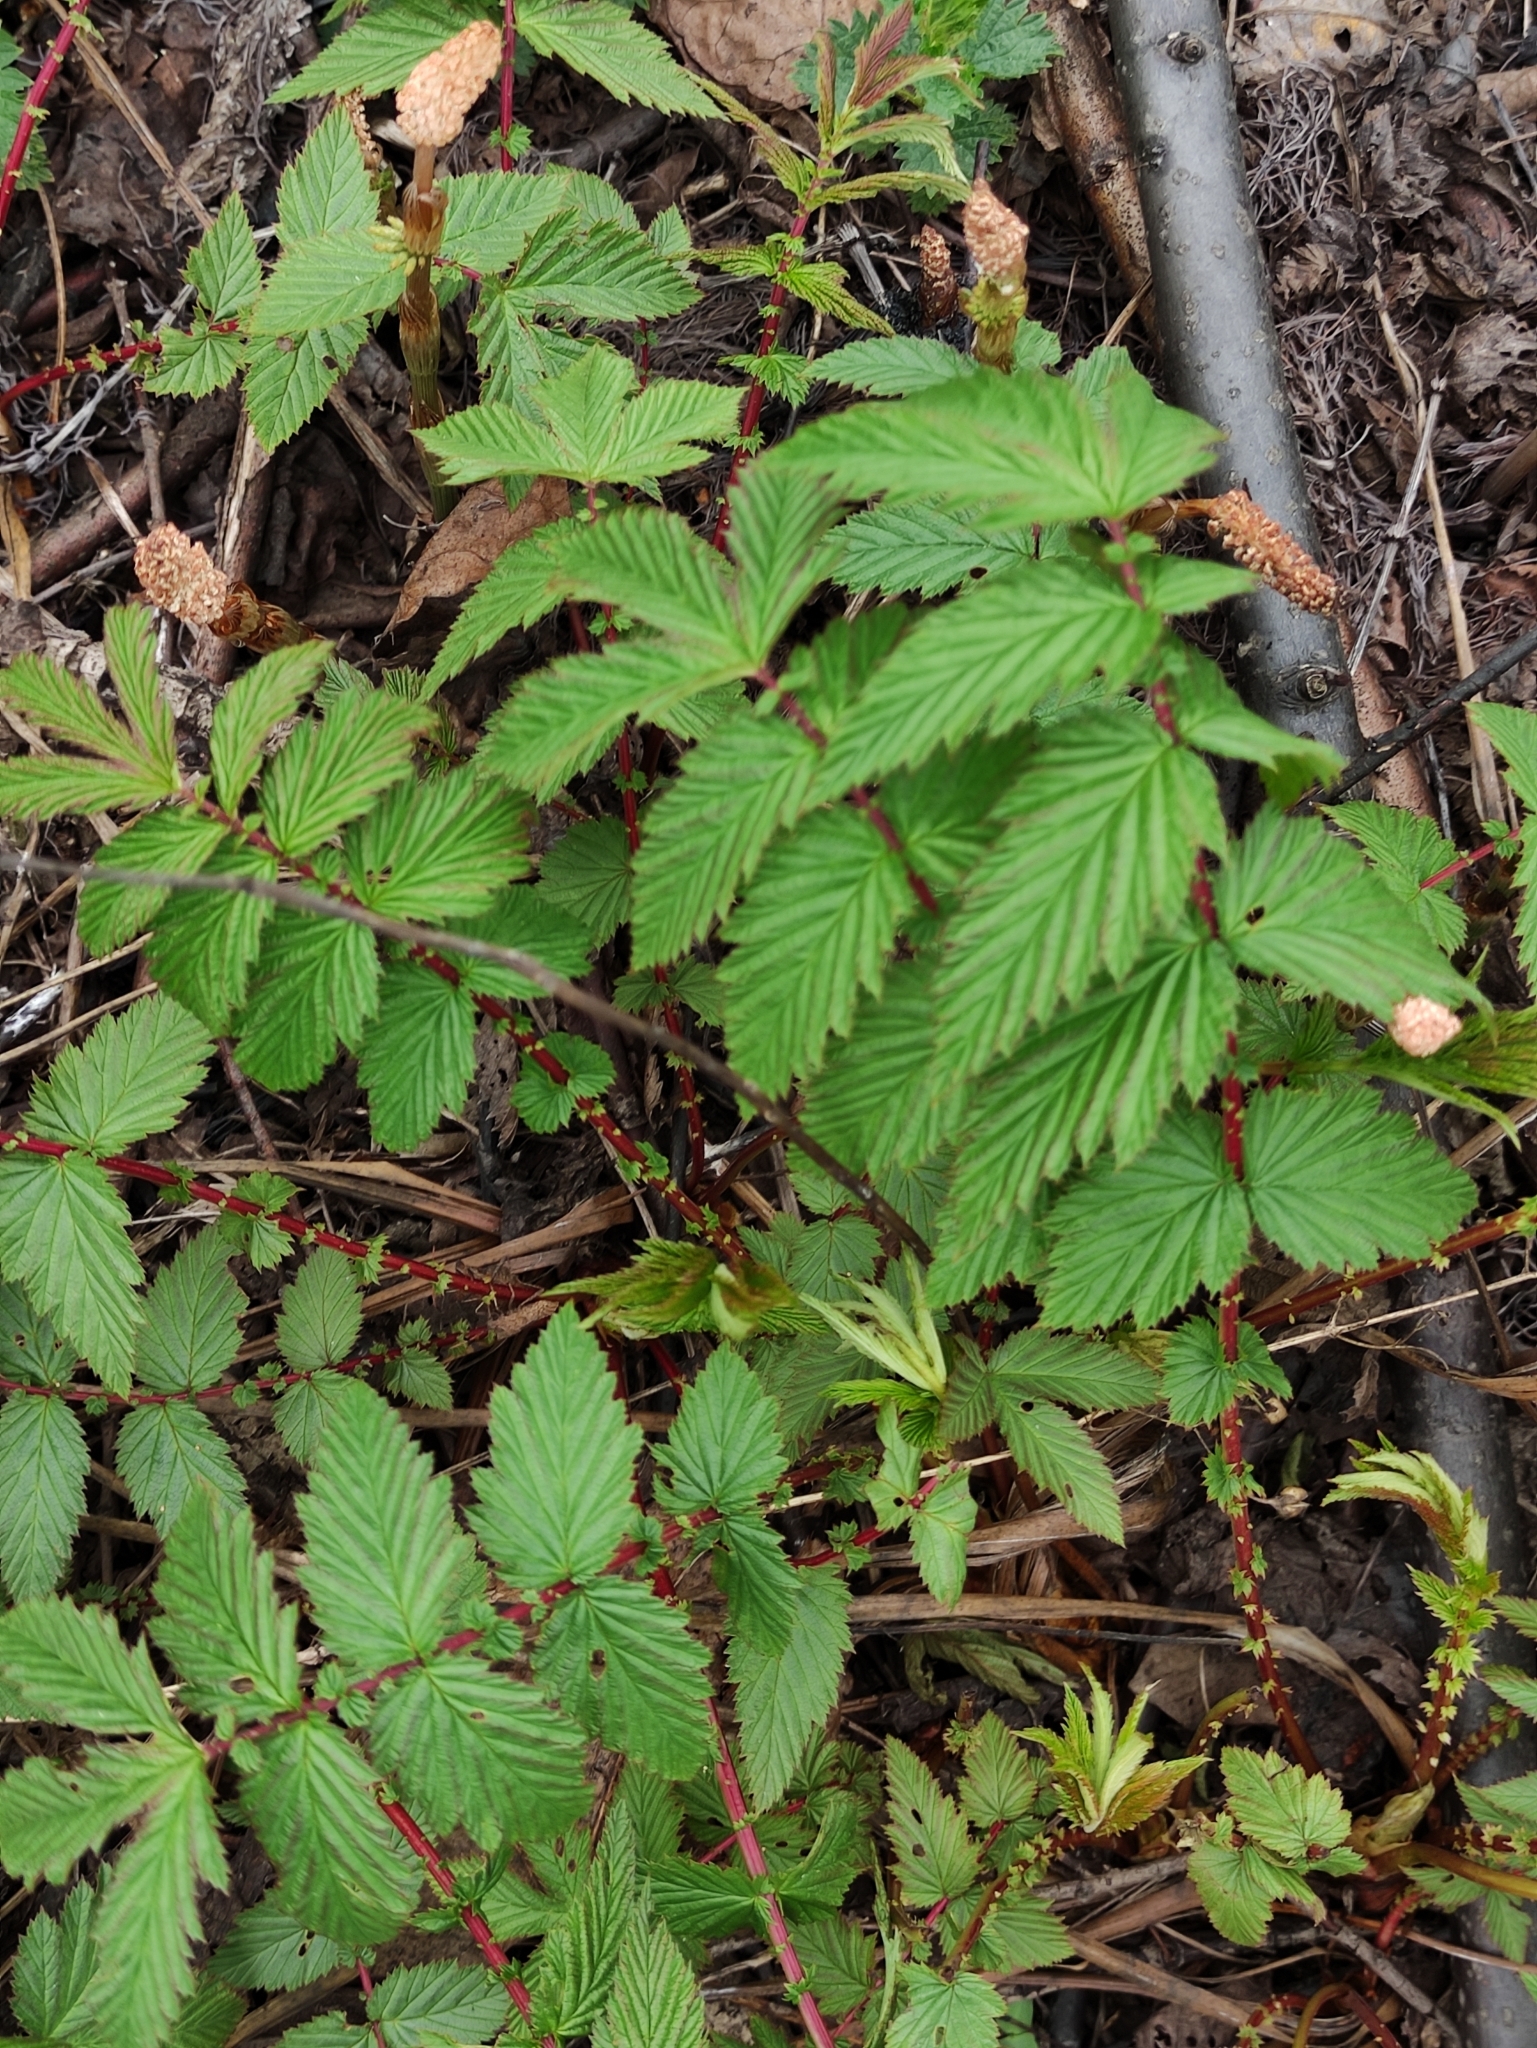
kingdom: Plantae
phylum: Tracheophyta
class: Magnoliopsida
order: Rosales
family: Rosaceae
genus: Filipendula
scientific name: Filipendula ulmaria
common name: Meadowsweet
